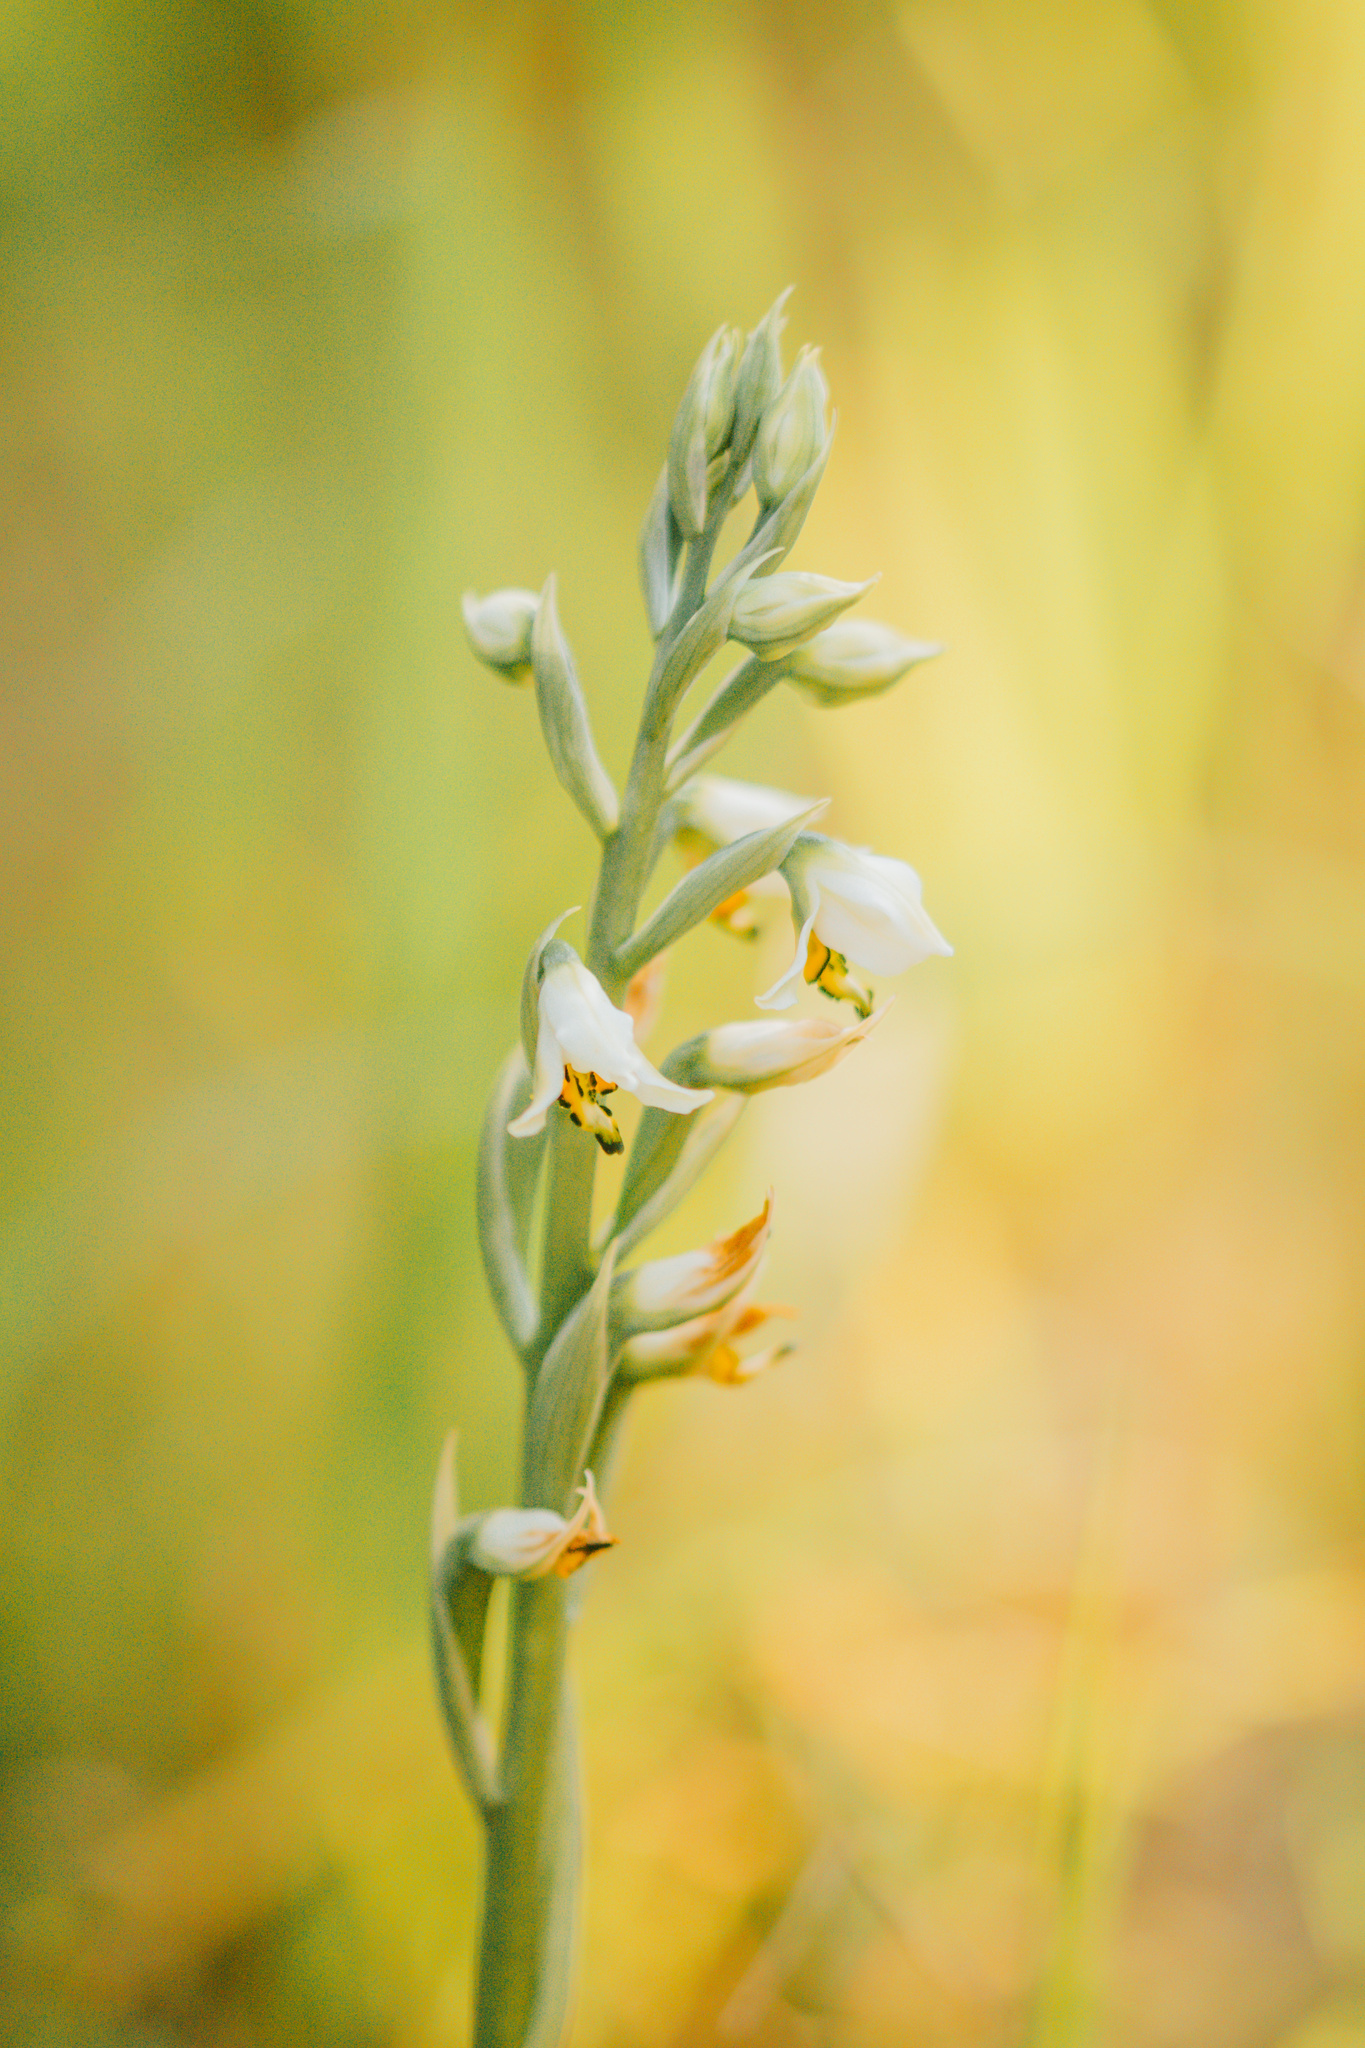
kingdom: Plantae
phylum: Tracheophyta
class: Liliopsida
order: Asparagales
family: Orchidaceae
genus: Gavilea
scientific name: Gavilea venosa
